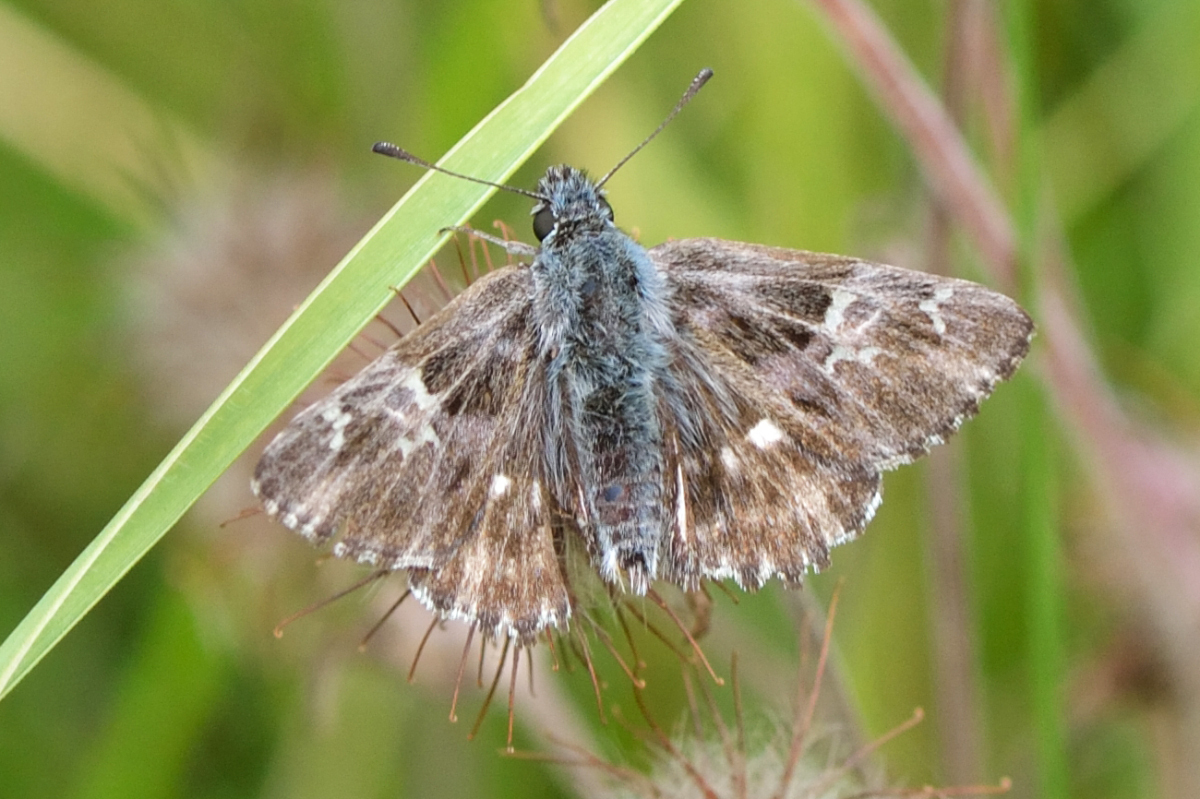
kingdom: Animalia
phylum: Arthropoda
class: Insecta
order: Lepidoptera
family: Hesperiidae
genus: Carcharodus
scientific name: Carcharodus floccifera
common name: Tufted marbled skipper
